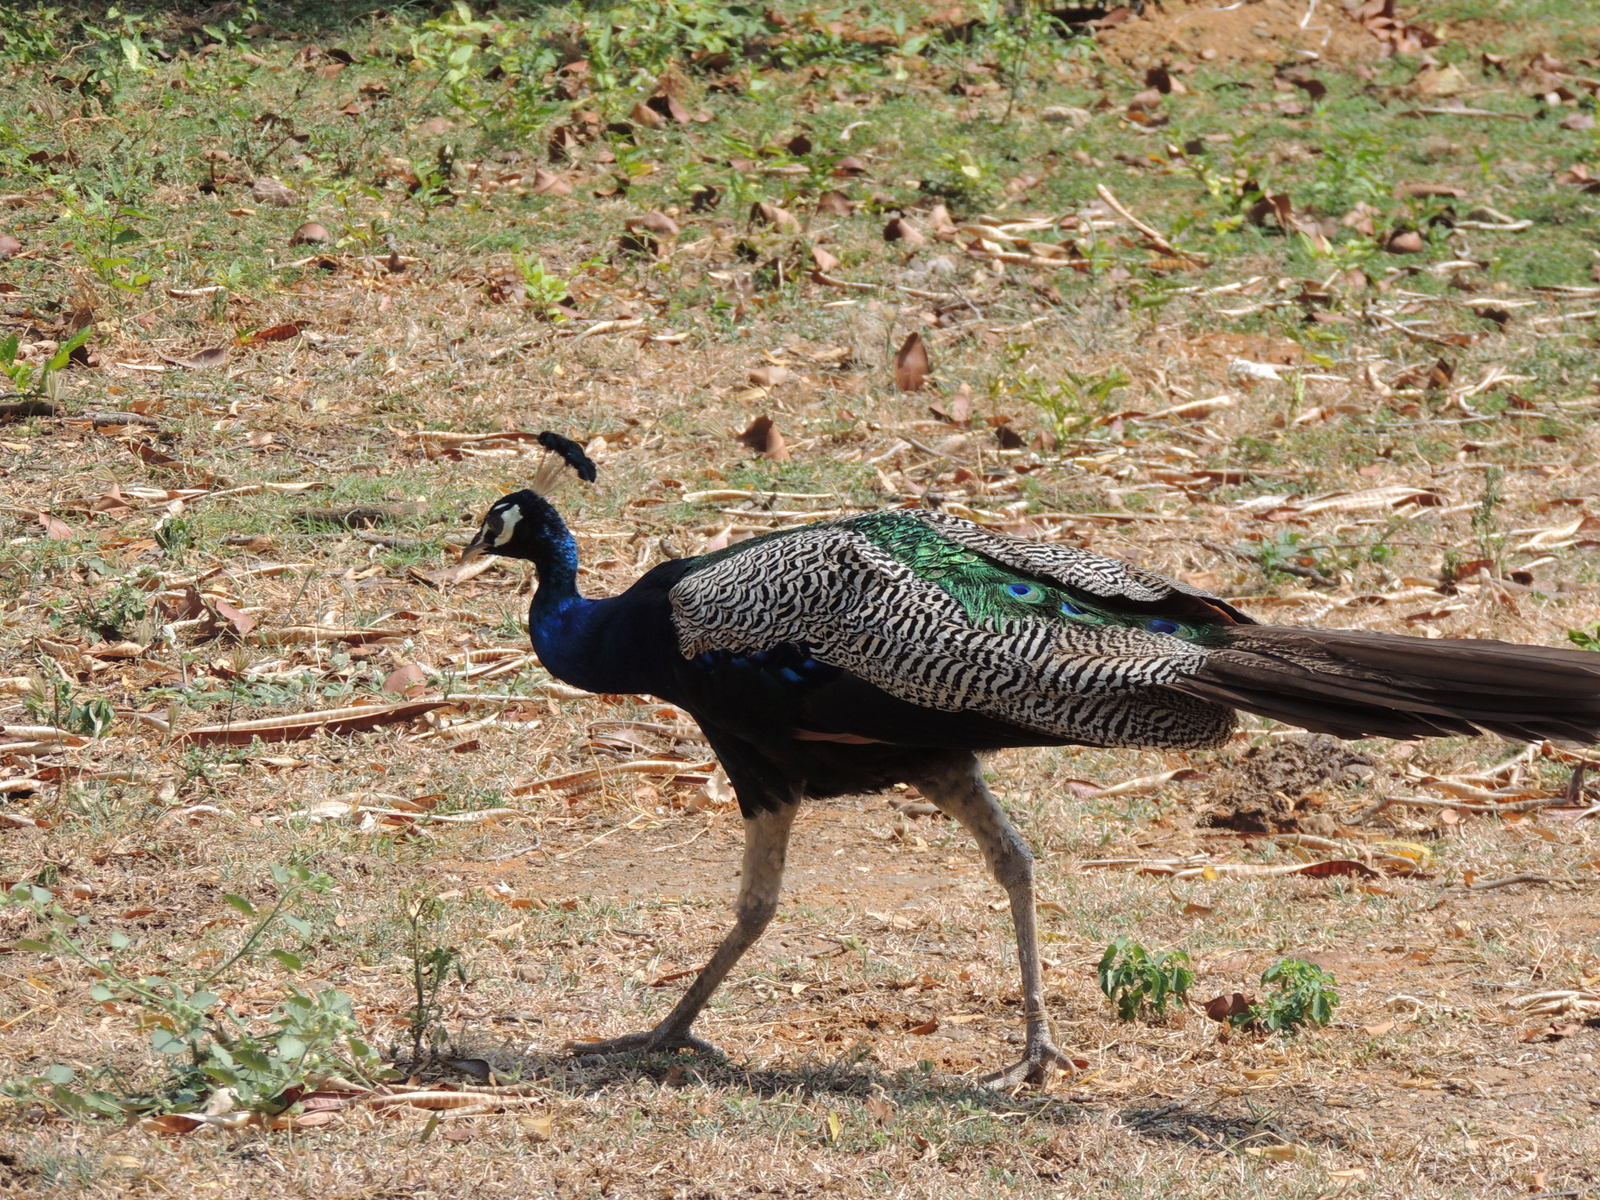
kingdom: Animalia
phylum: Chordata
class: Aves
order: Galliformes
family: Phasianidae
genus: Pavo
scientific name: Pavo cristatus
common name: Indian peafowl
